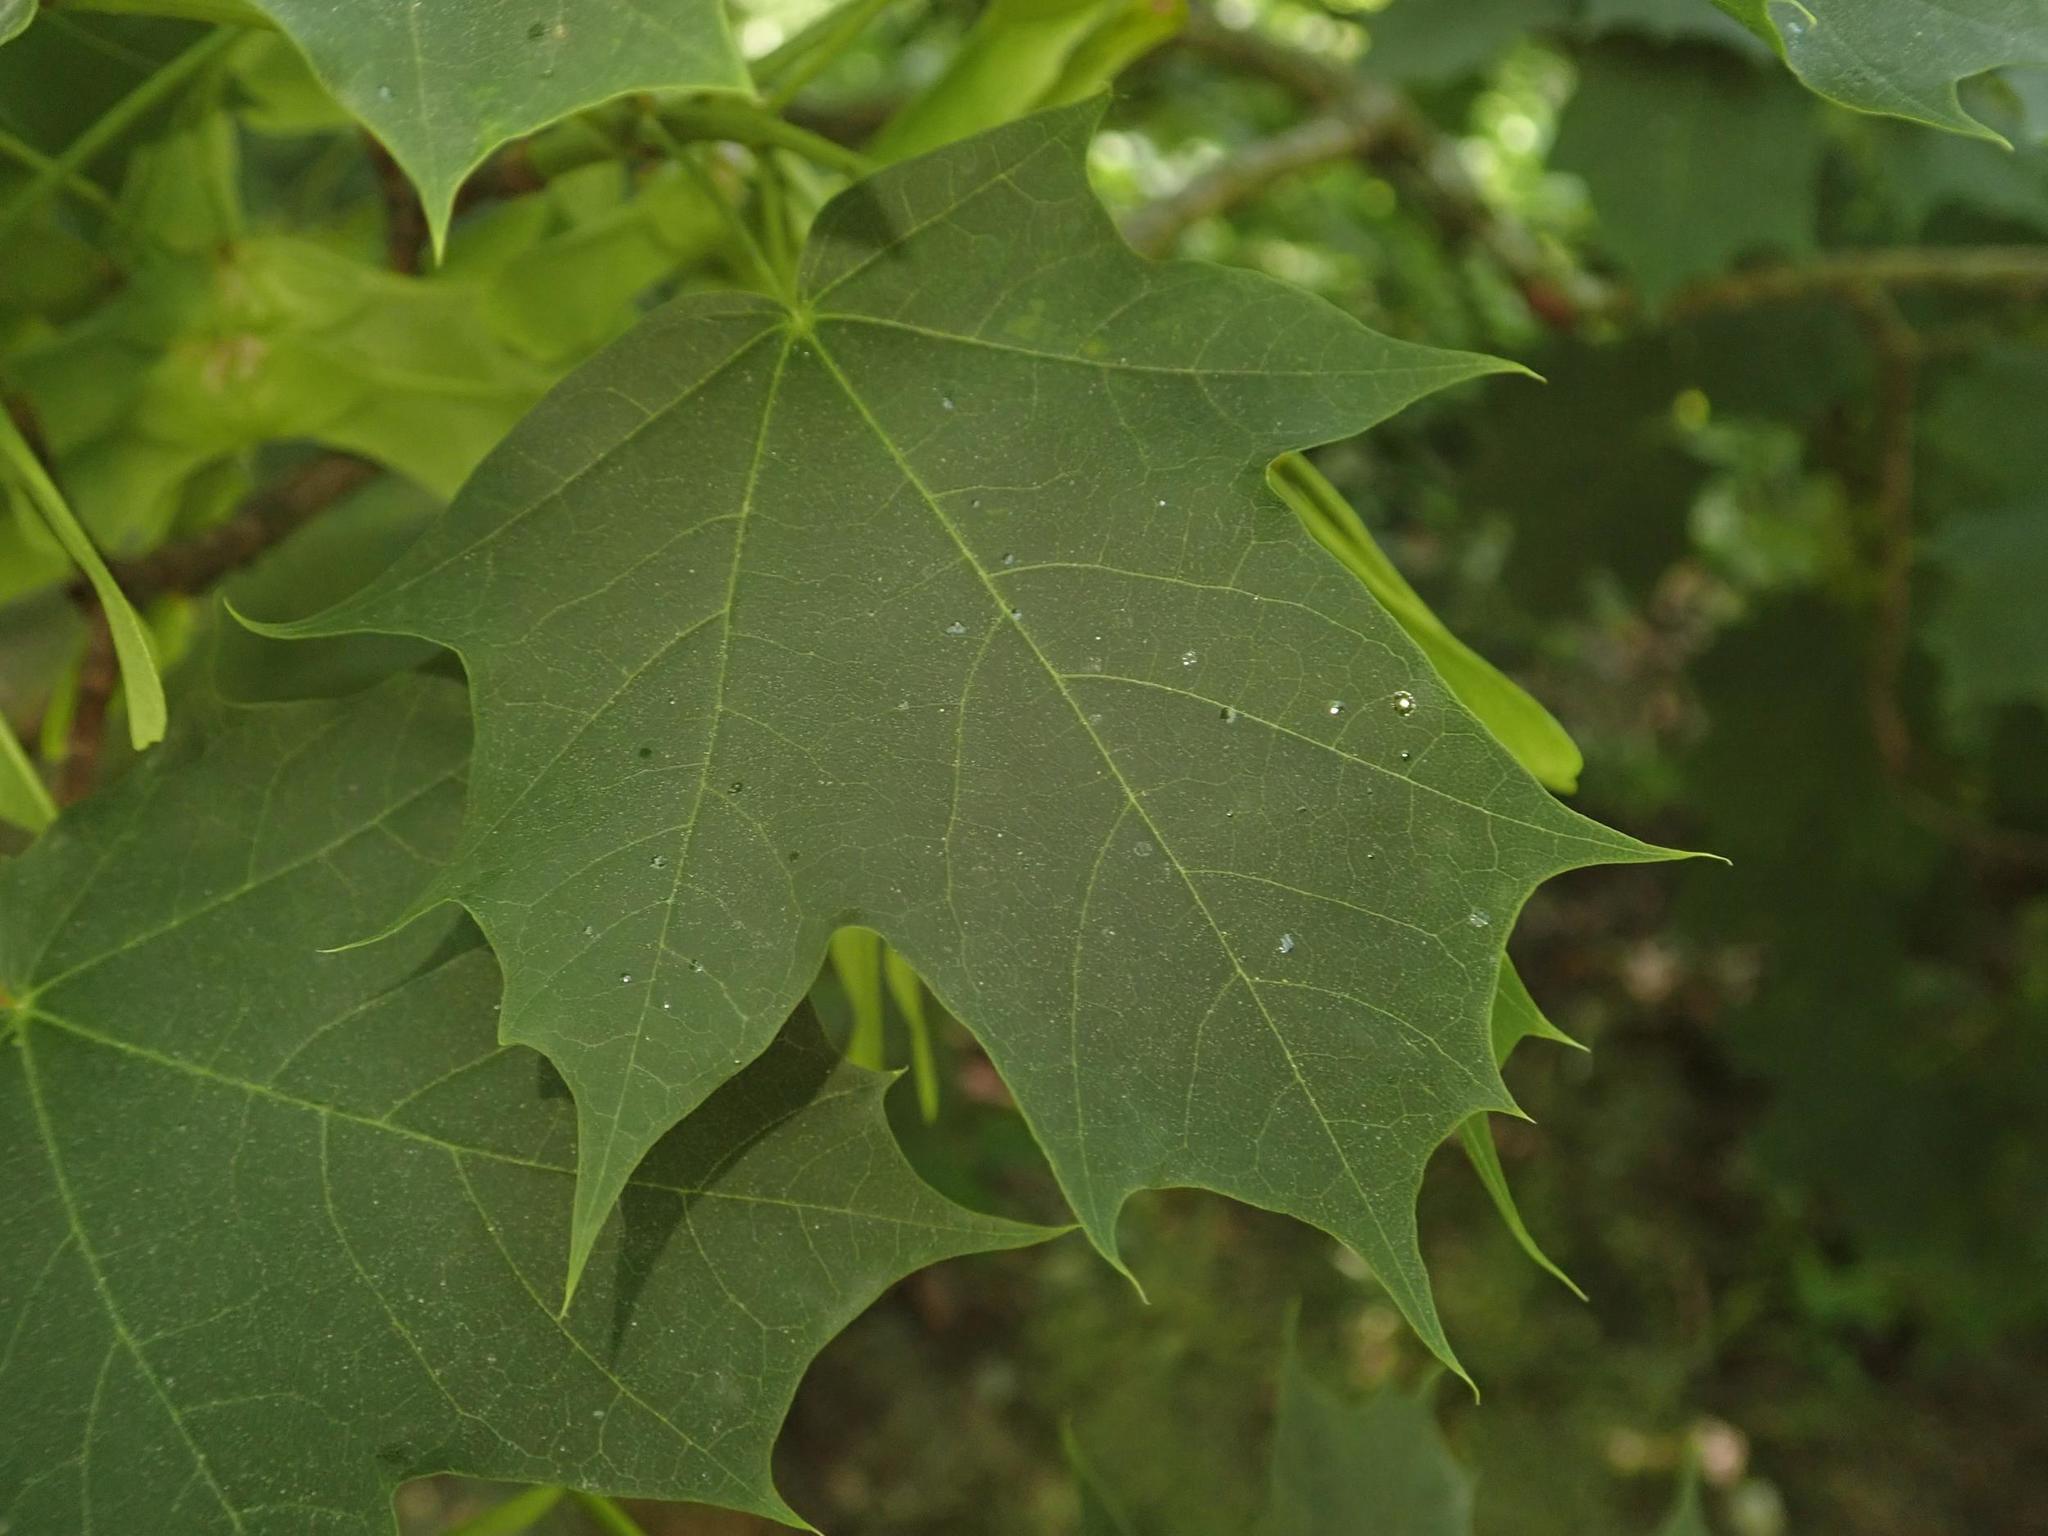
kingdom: Plantae
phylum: Tracheophyta
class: Magnoliopsida
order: Sapindales
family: Sapindaceae
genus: Acer
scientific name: Acer platanoides
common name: Norway maple
